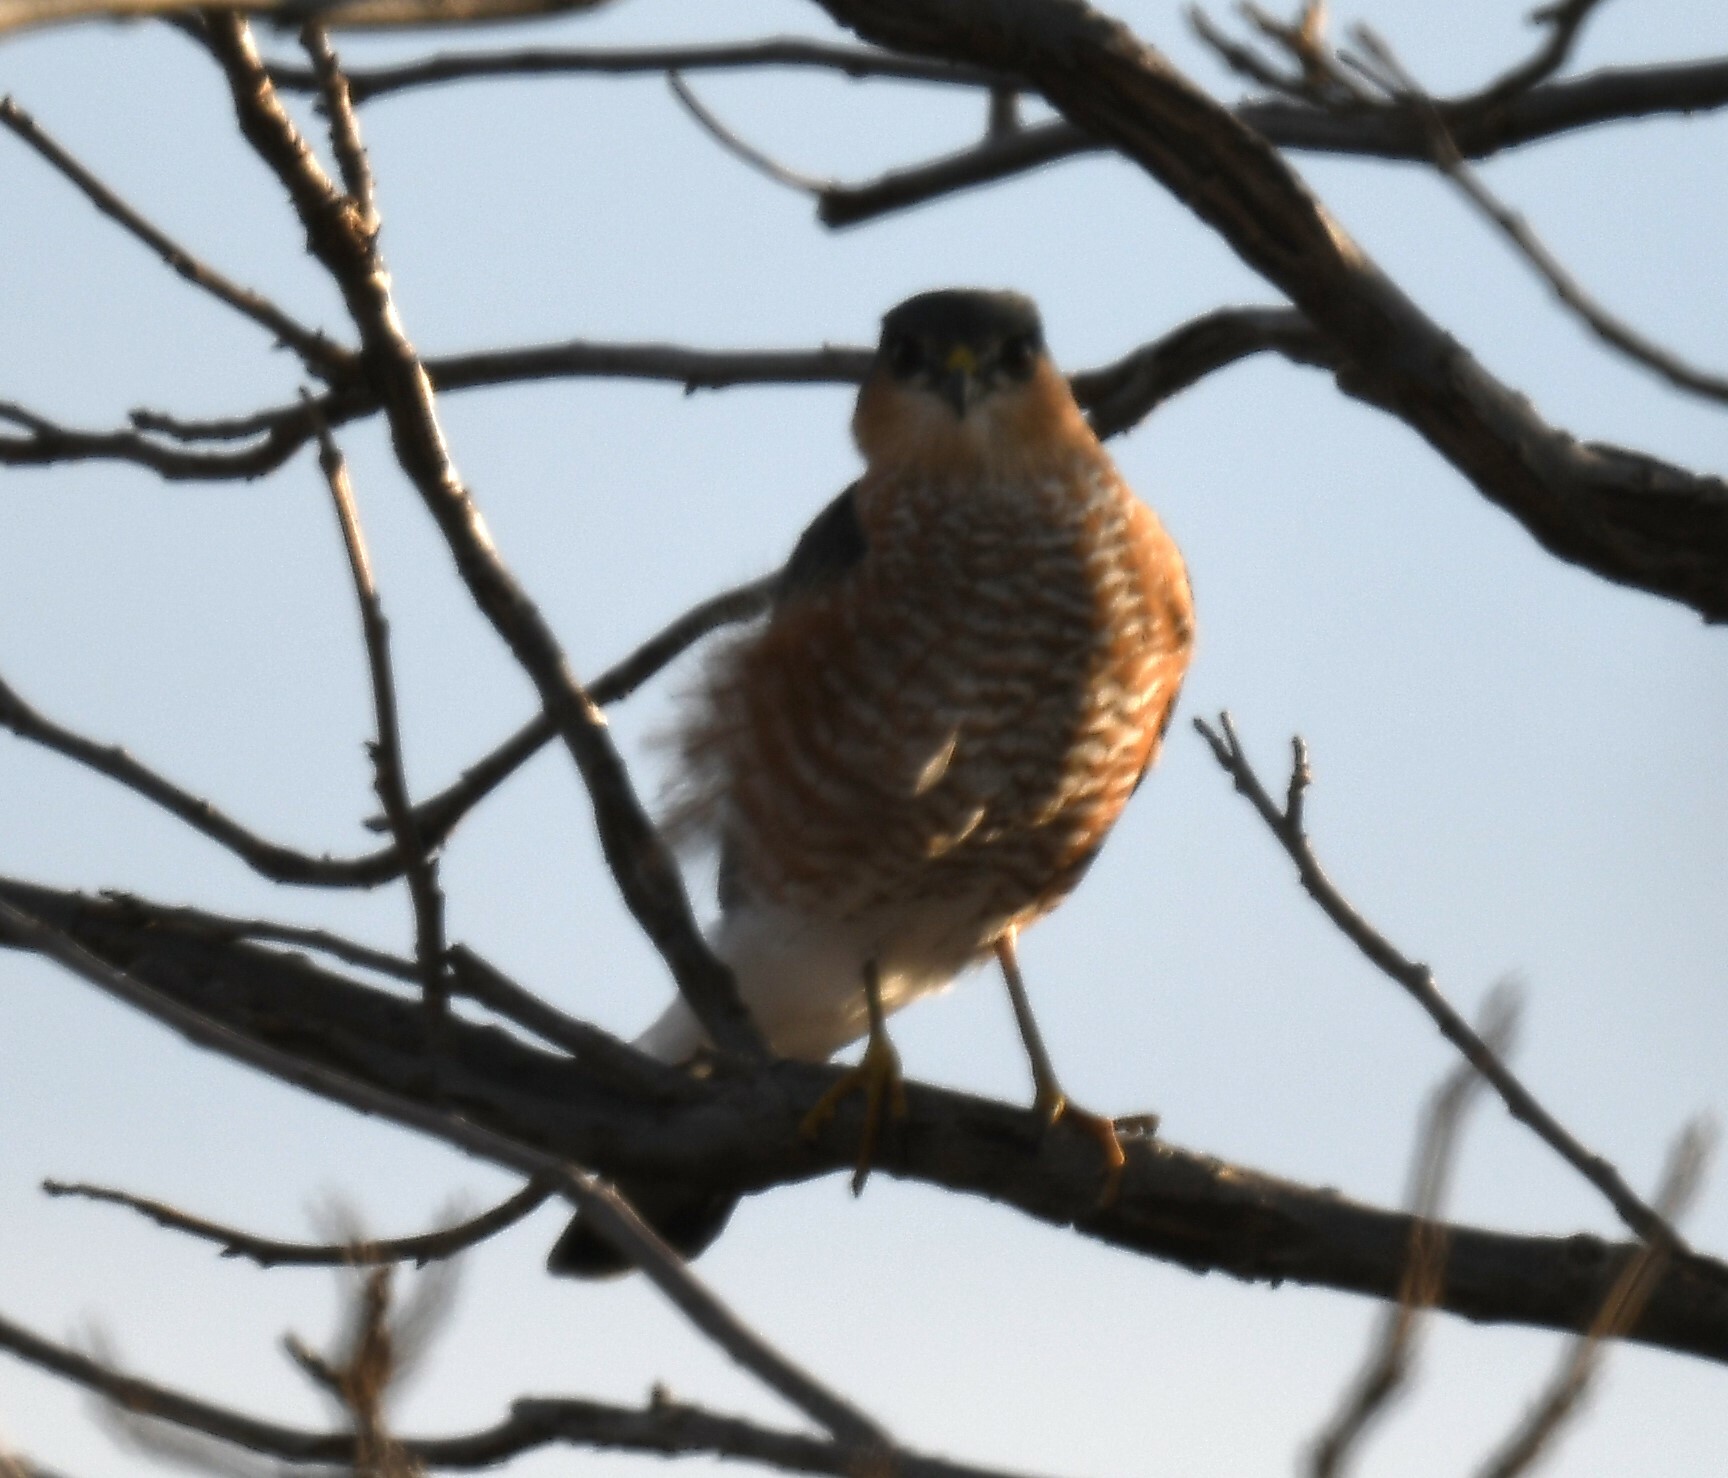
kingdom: Animalia
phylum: Chordata
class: Aves
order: Accipitriformes
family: Accipitridae
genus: Accipiter
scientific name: Accipiter striatus
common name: Sharp-shinned hawk
